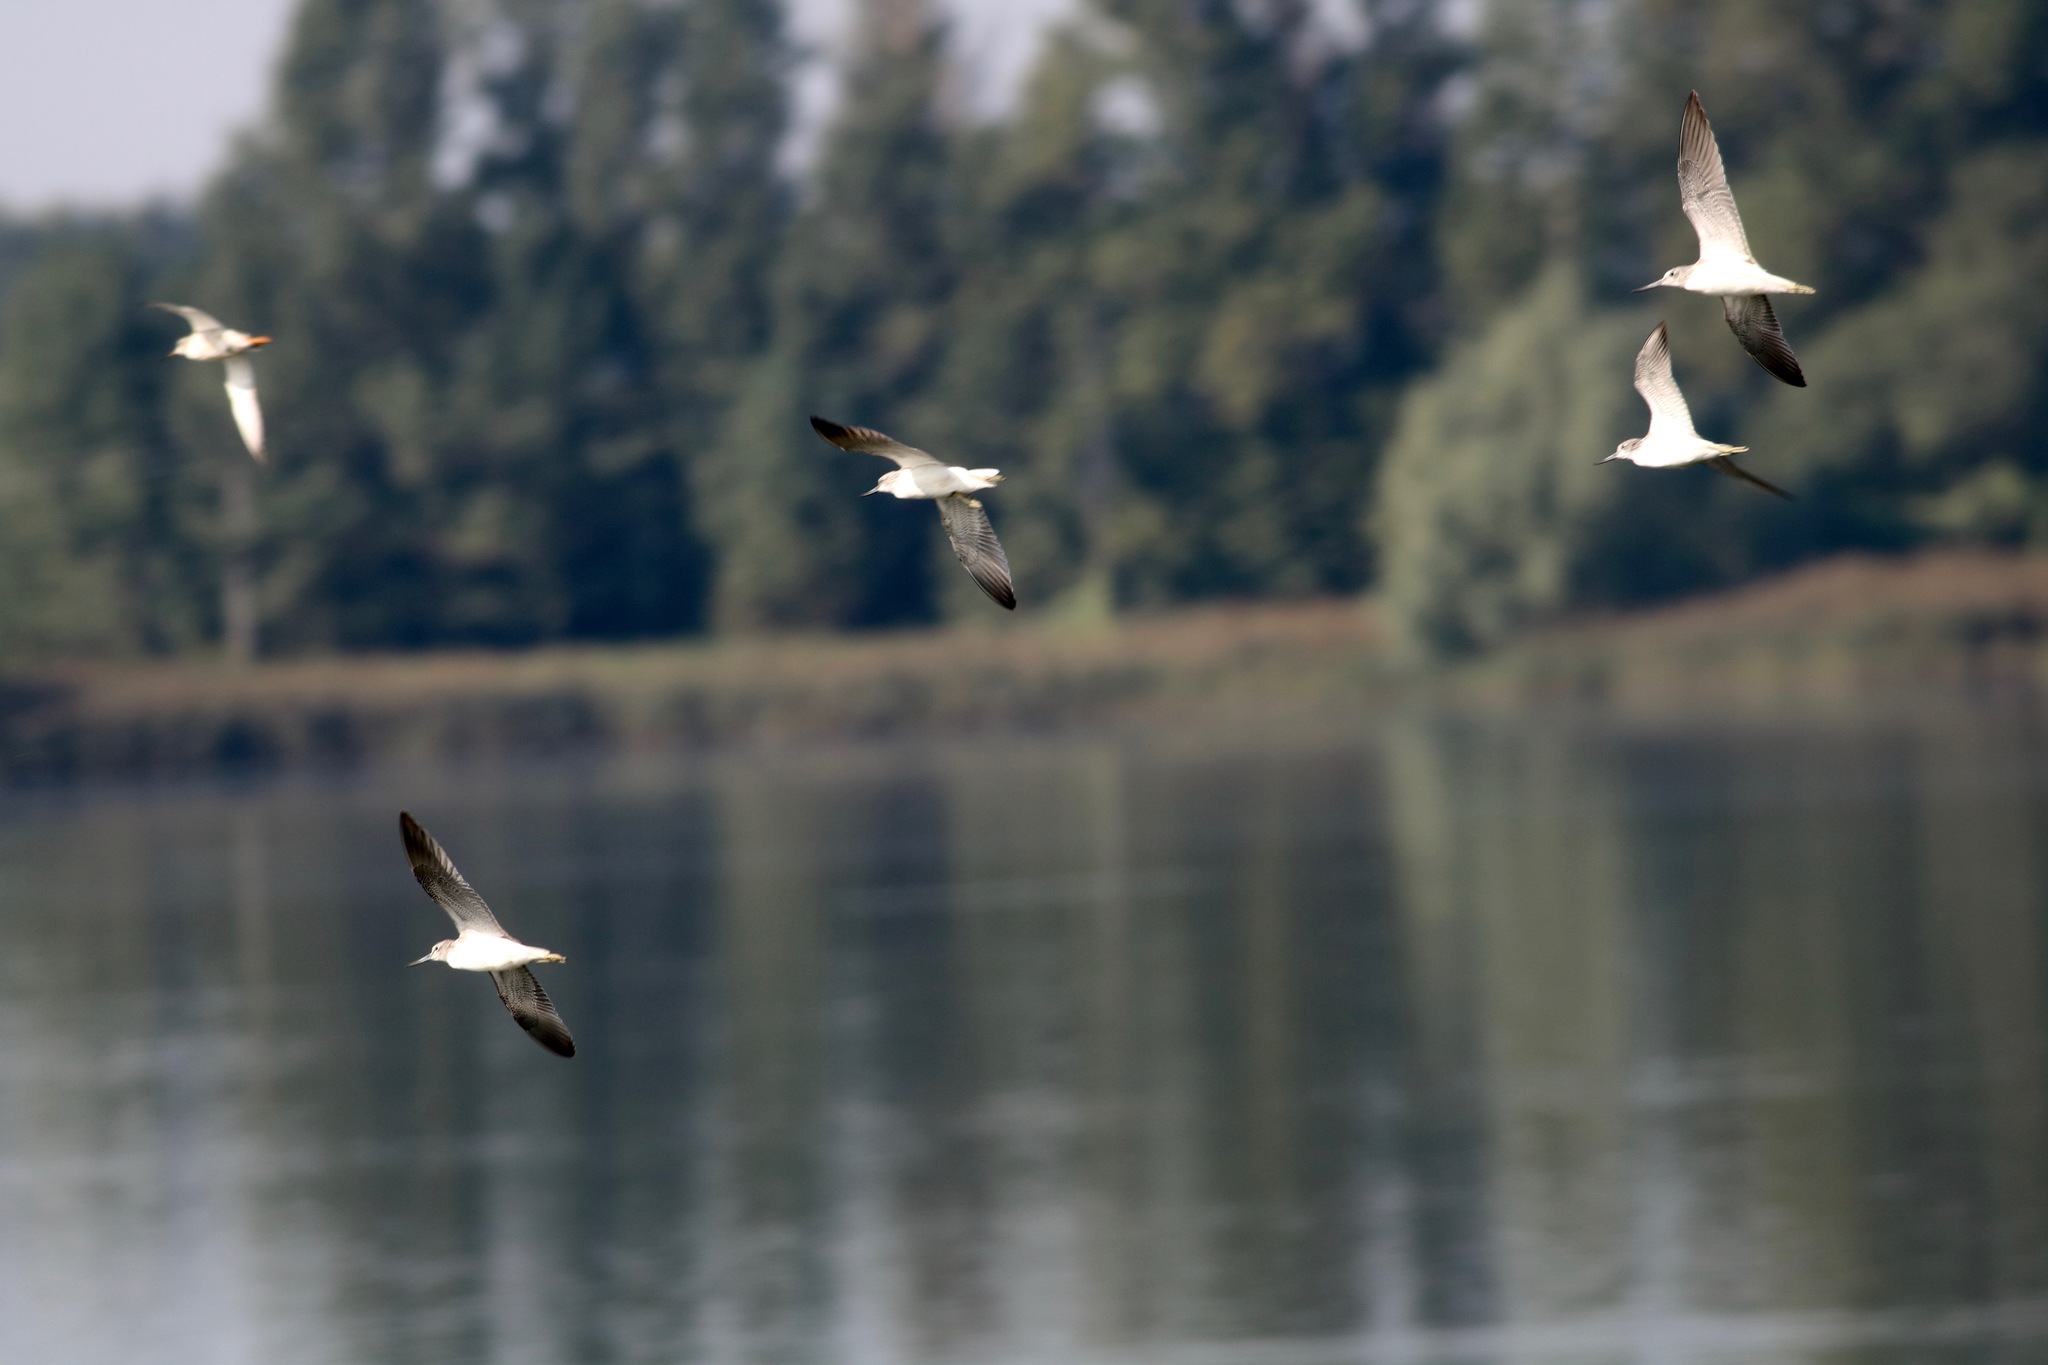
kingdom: Animalia
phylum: Chordata
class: Aves
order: Charadriiformes
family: Scolopacidae
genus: Tringa
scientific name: Tringa nebularia
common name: Common greenshank
